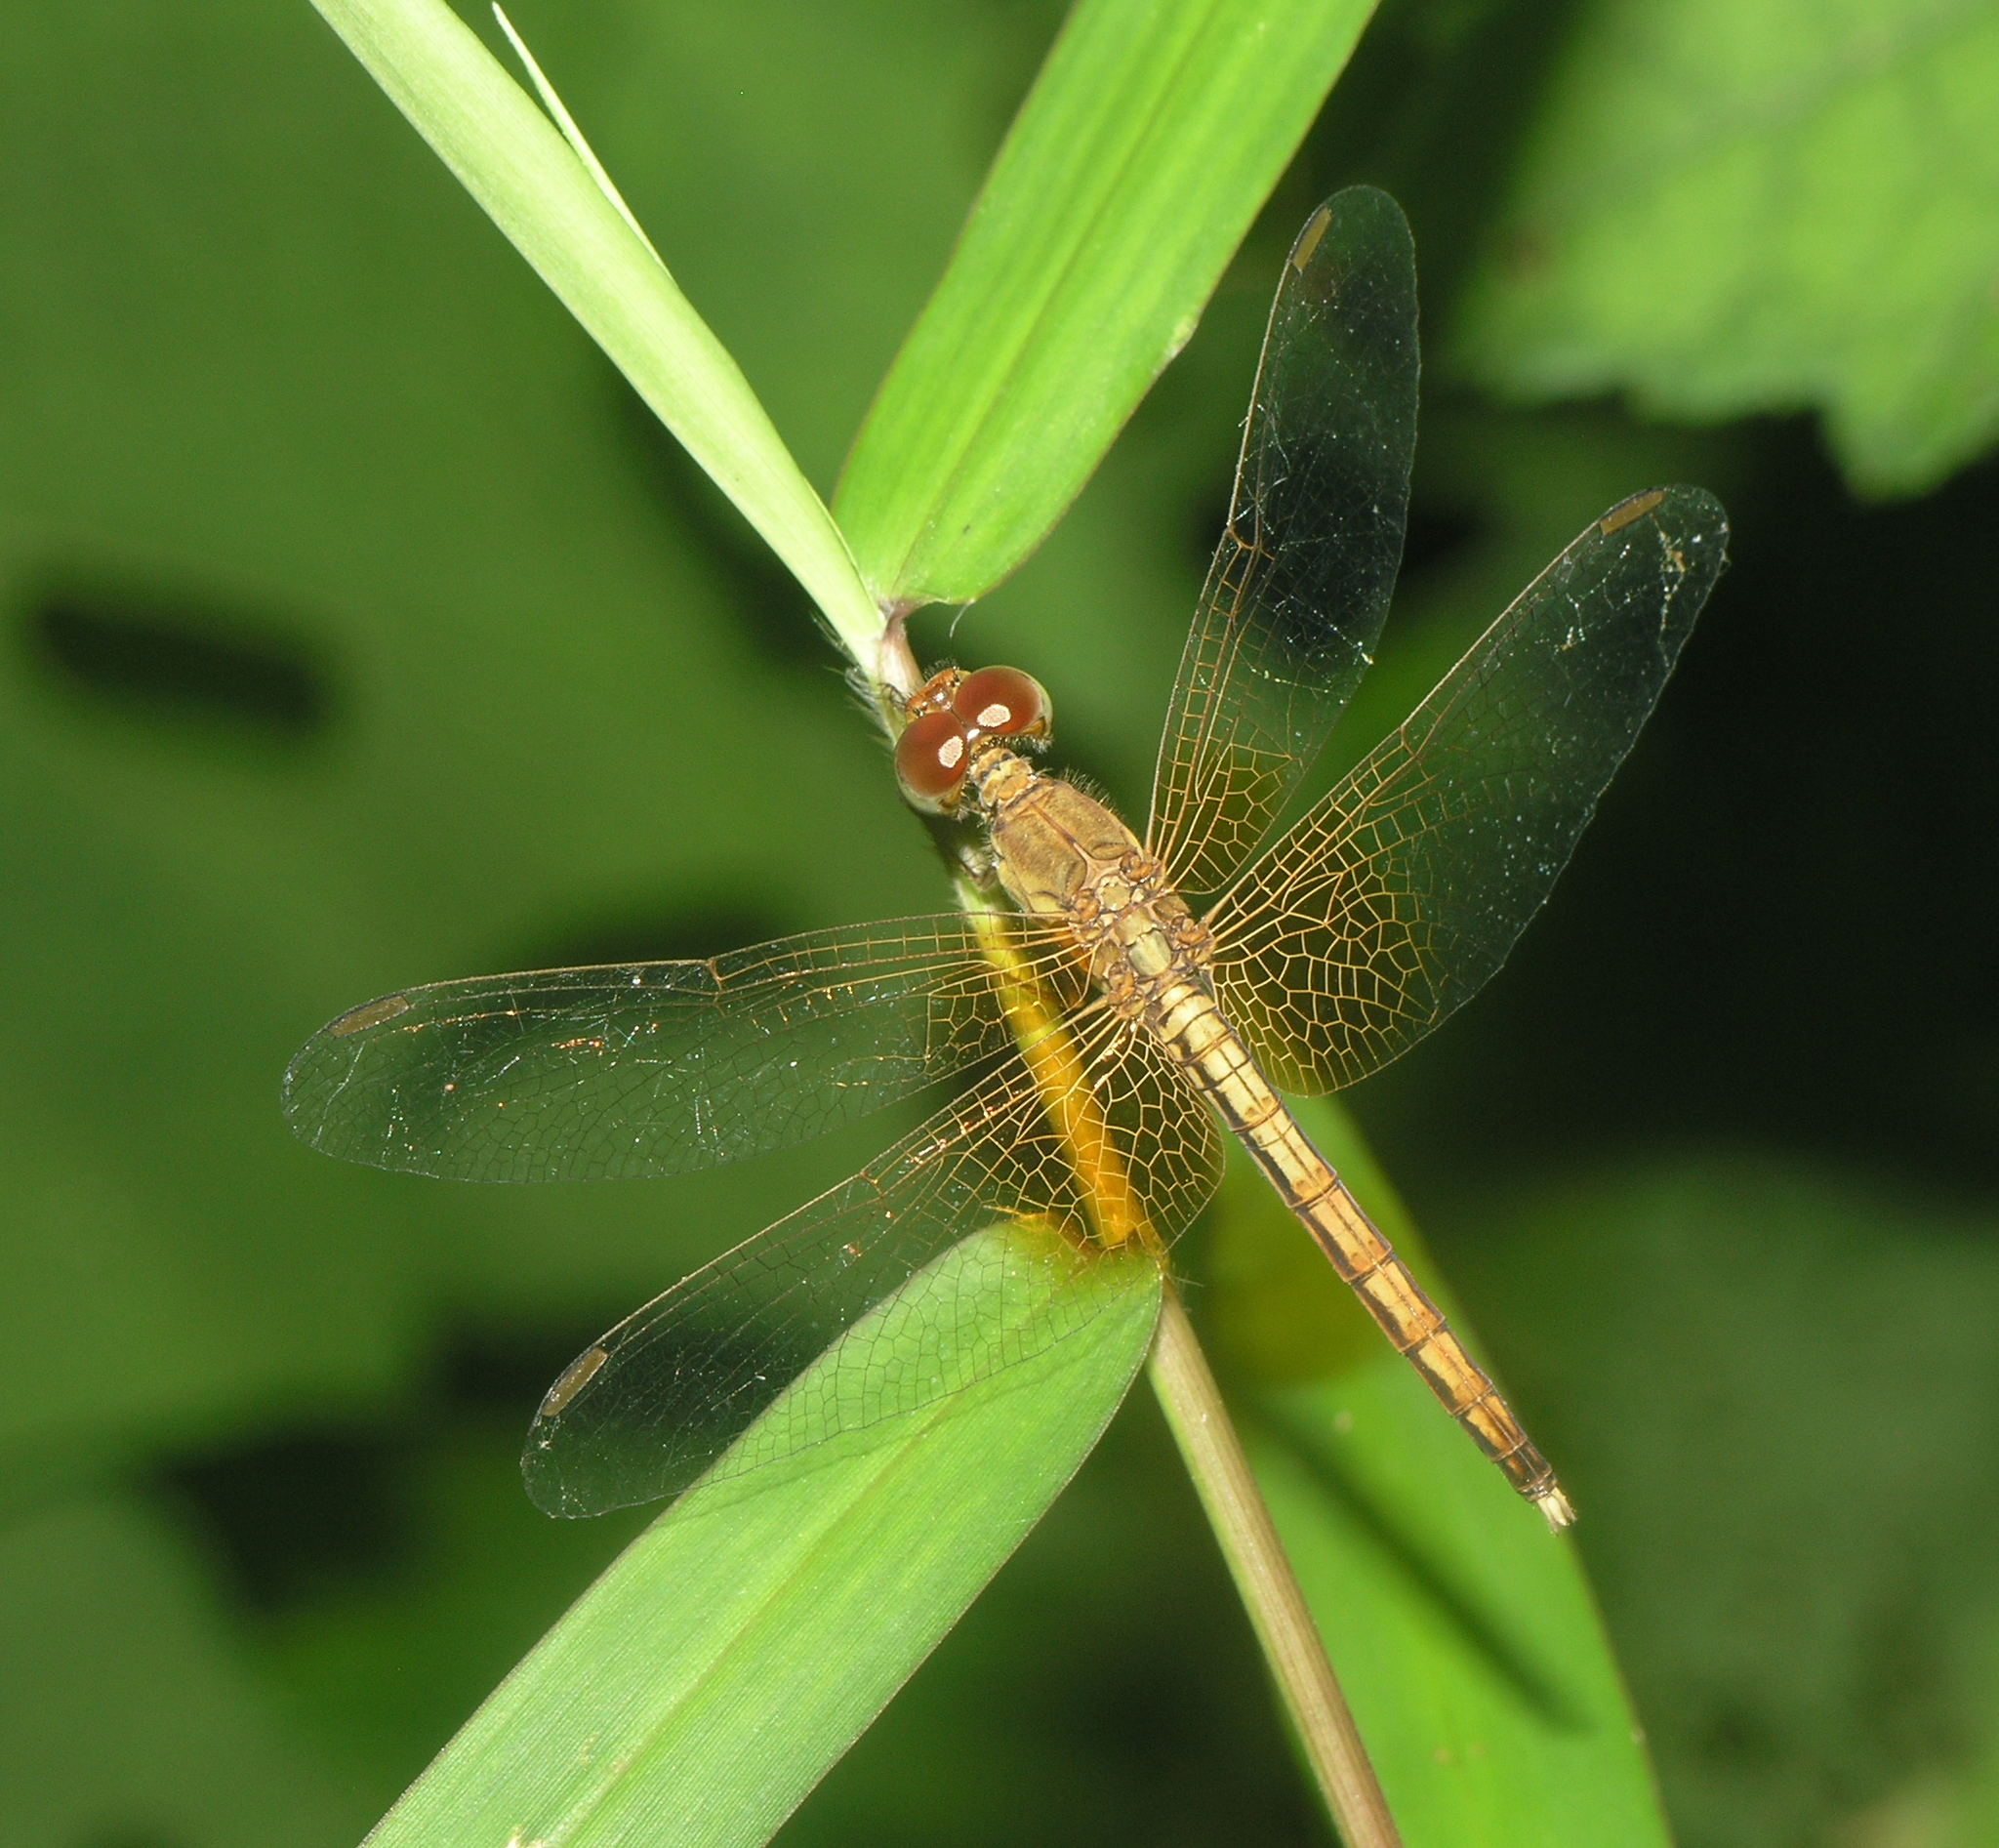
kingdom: Animalia
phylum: Arthropoda
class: Insecta
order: Odonata
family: Libellulidae
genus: Neurothemis
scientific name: Neurothemis intermedia
